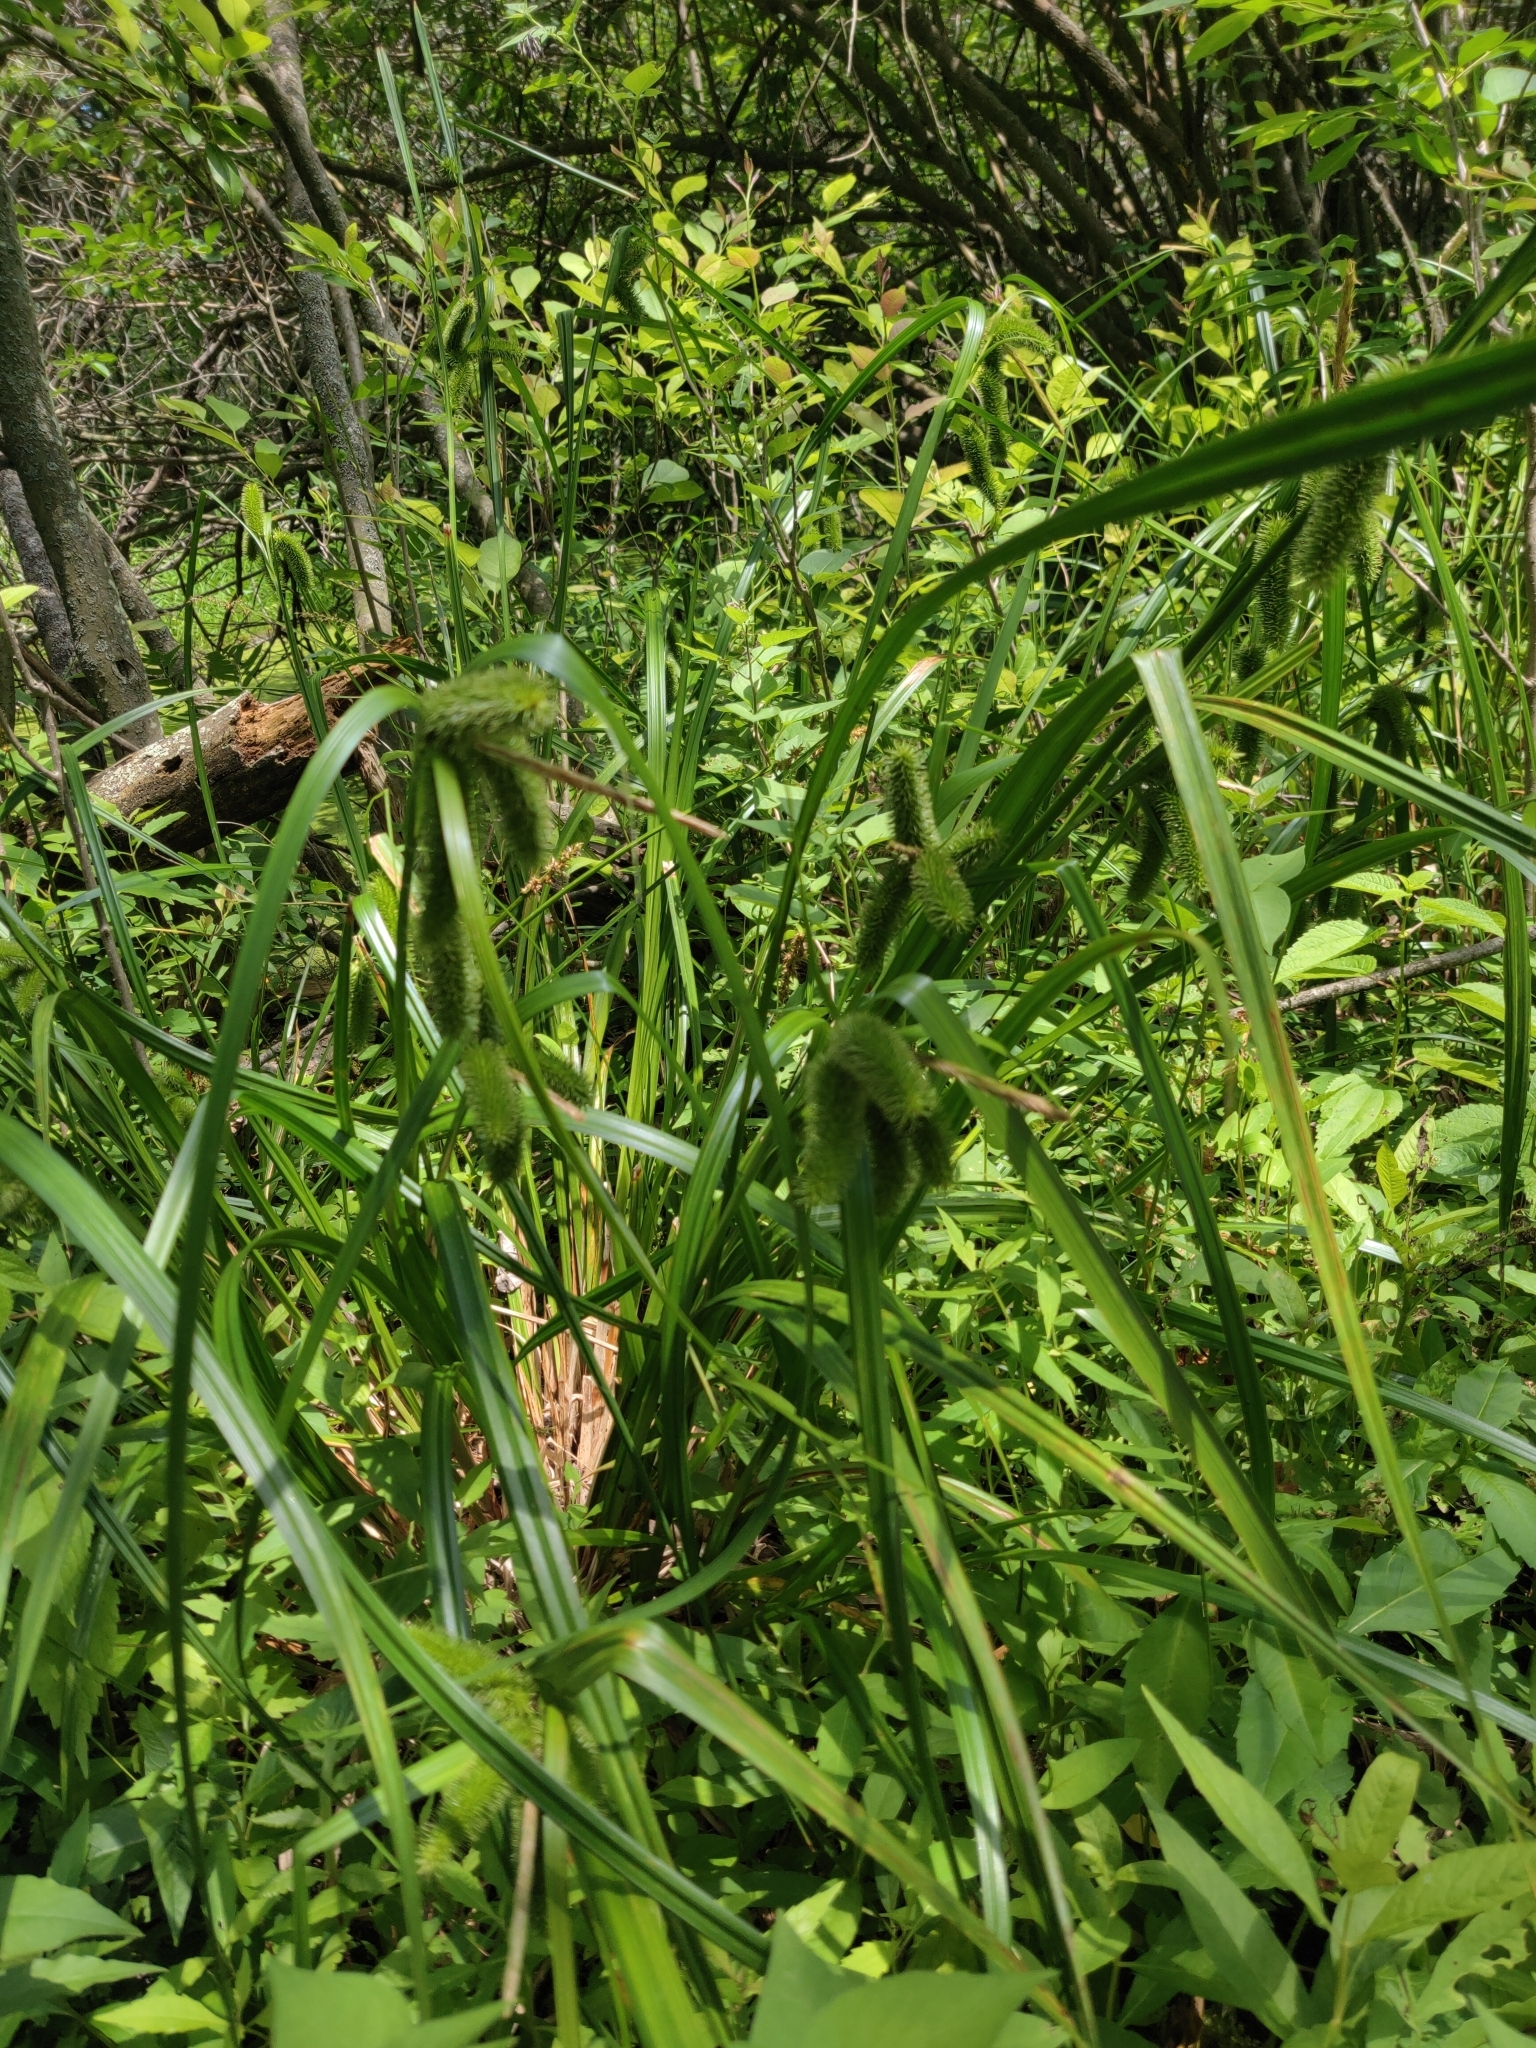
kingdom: Plantae
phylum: Tracheophyta
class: Liliopsida
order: Poales
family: Cyperaceae
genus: Carex
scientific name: Carex comosa
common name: Bristly sedge
